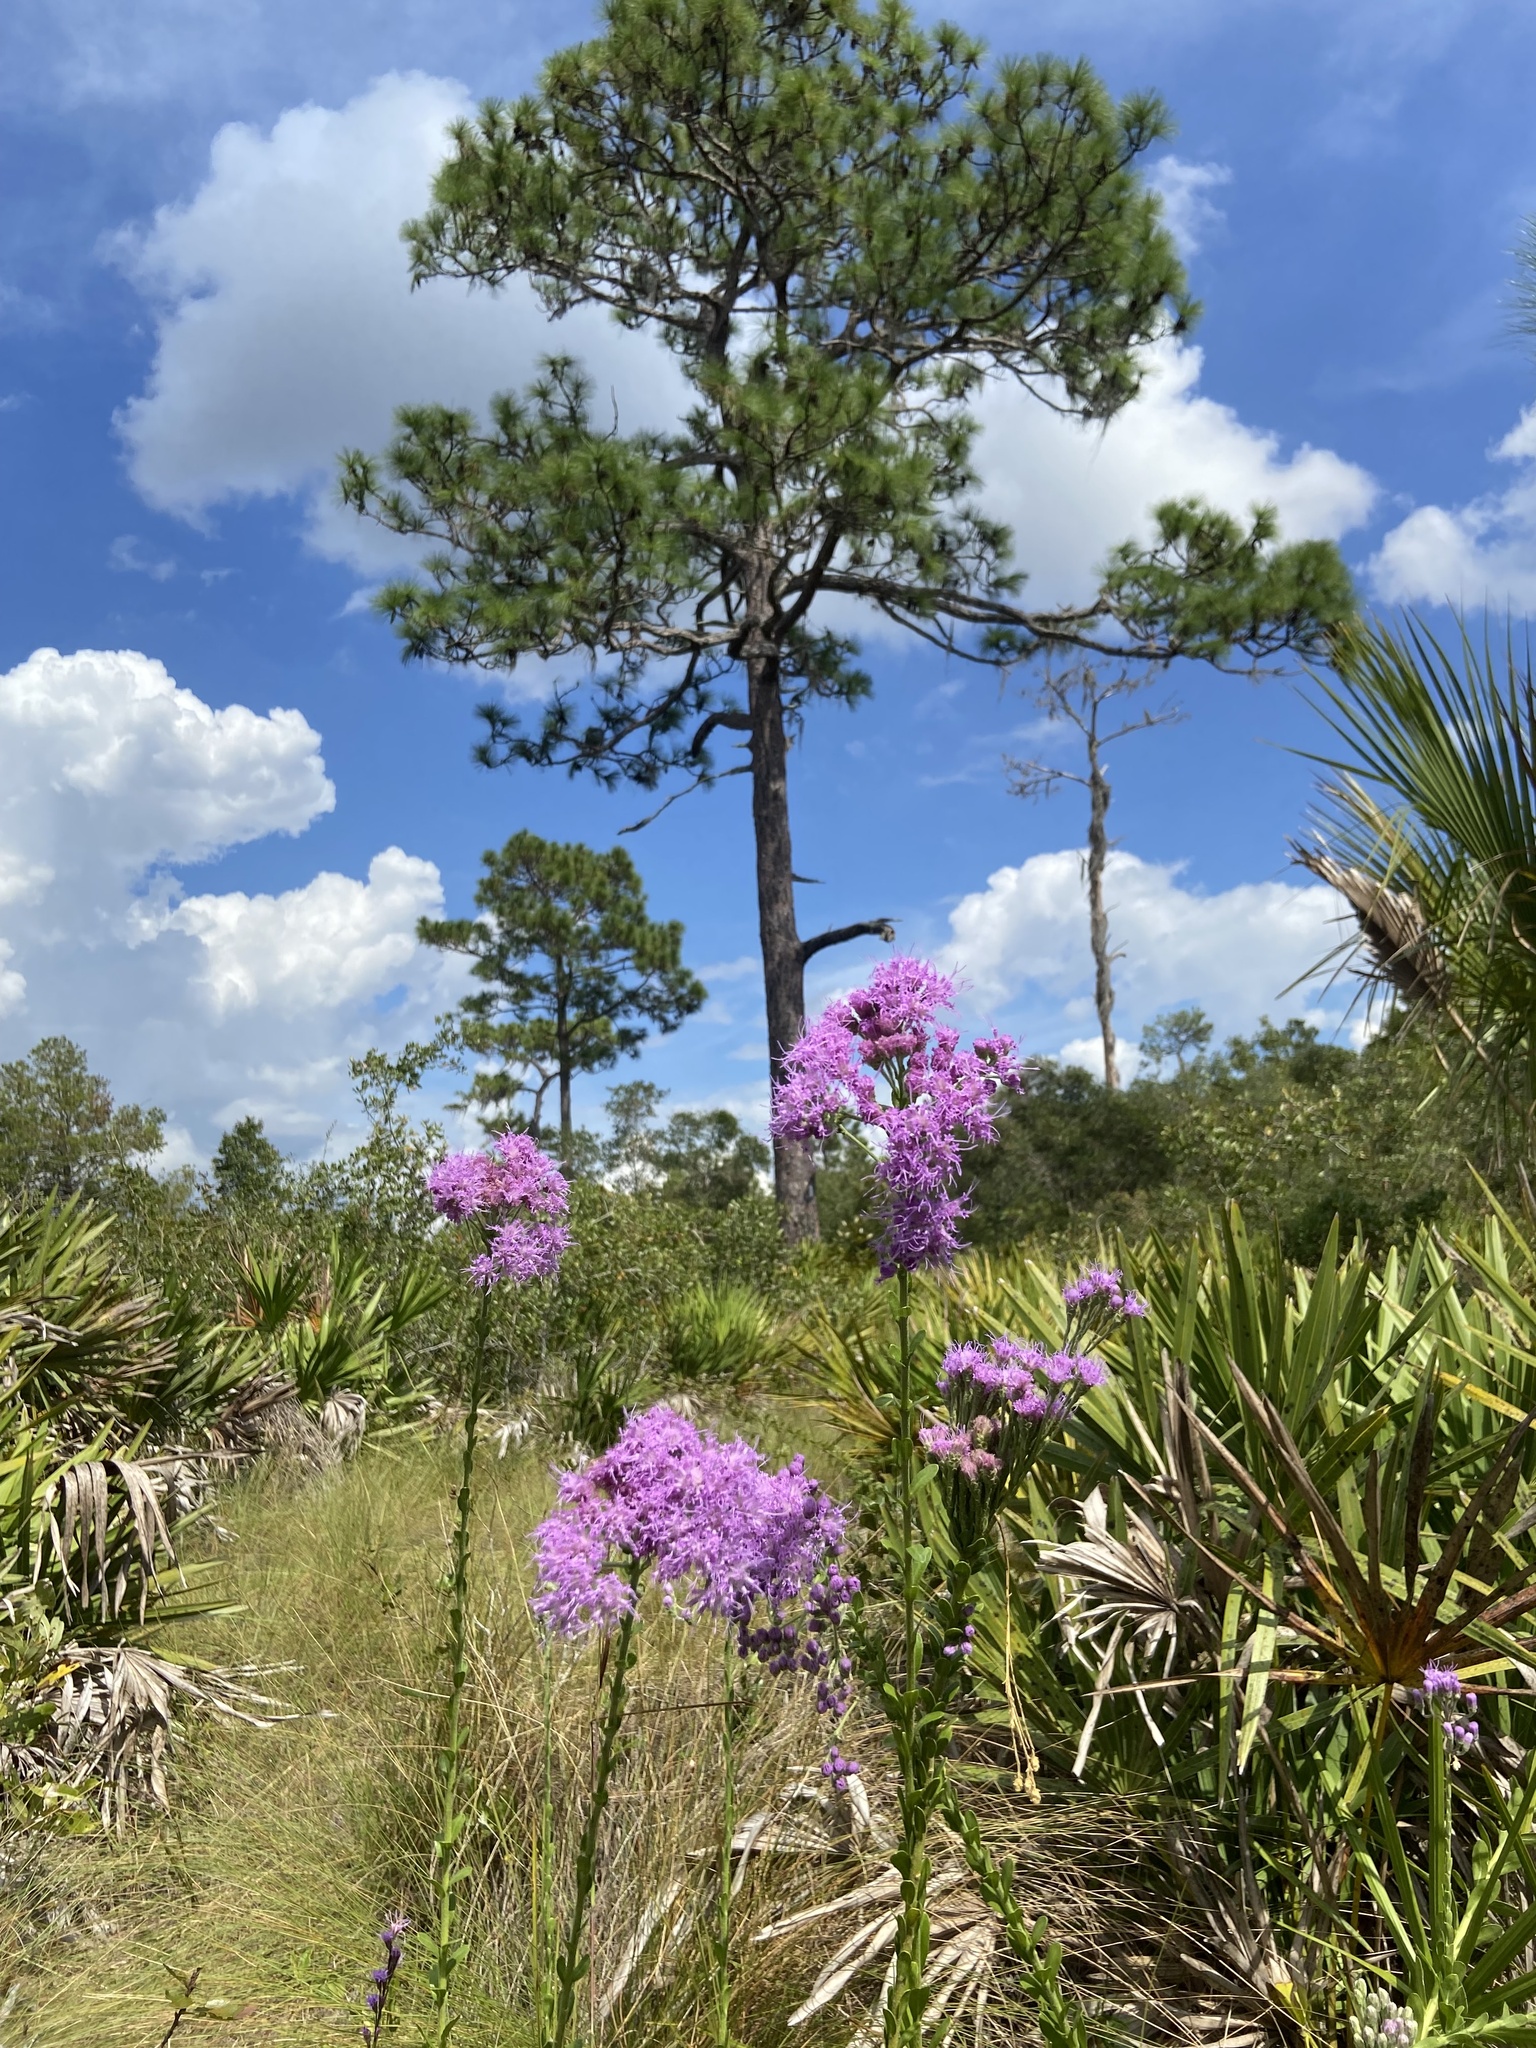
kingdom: Plantae
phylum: Tracheophyta
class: Magnoliopsida
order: Asterales
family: Asteraceae
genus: Carphephorus
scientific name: Carphephorus corymbosus
